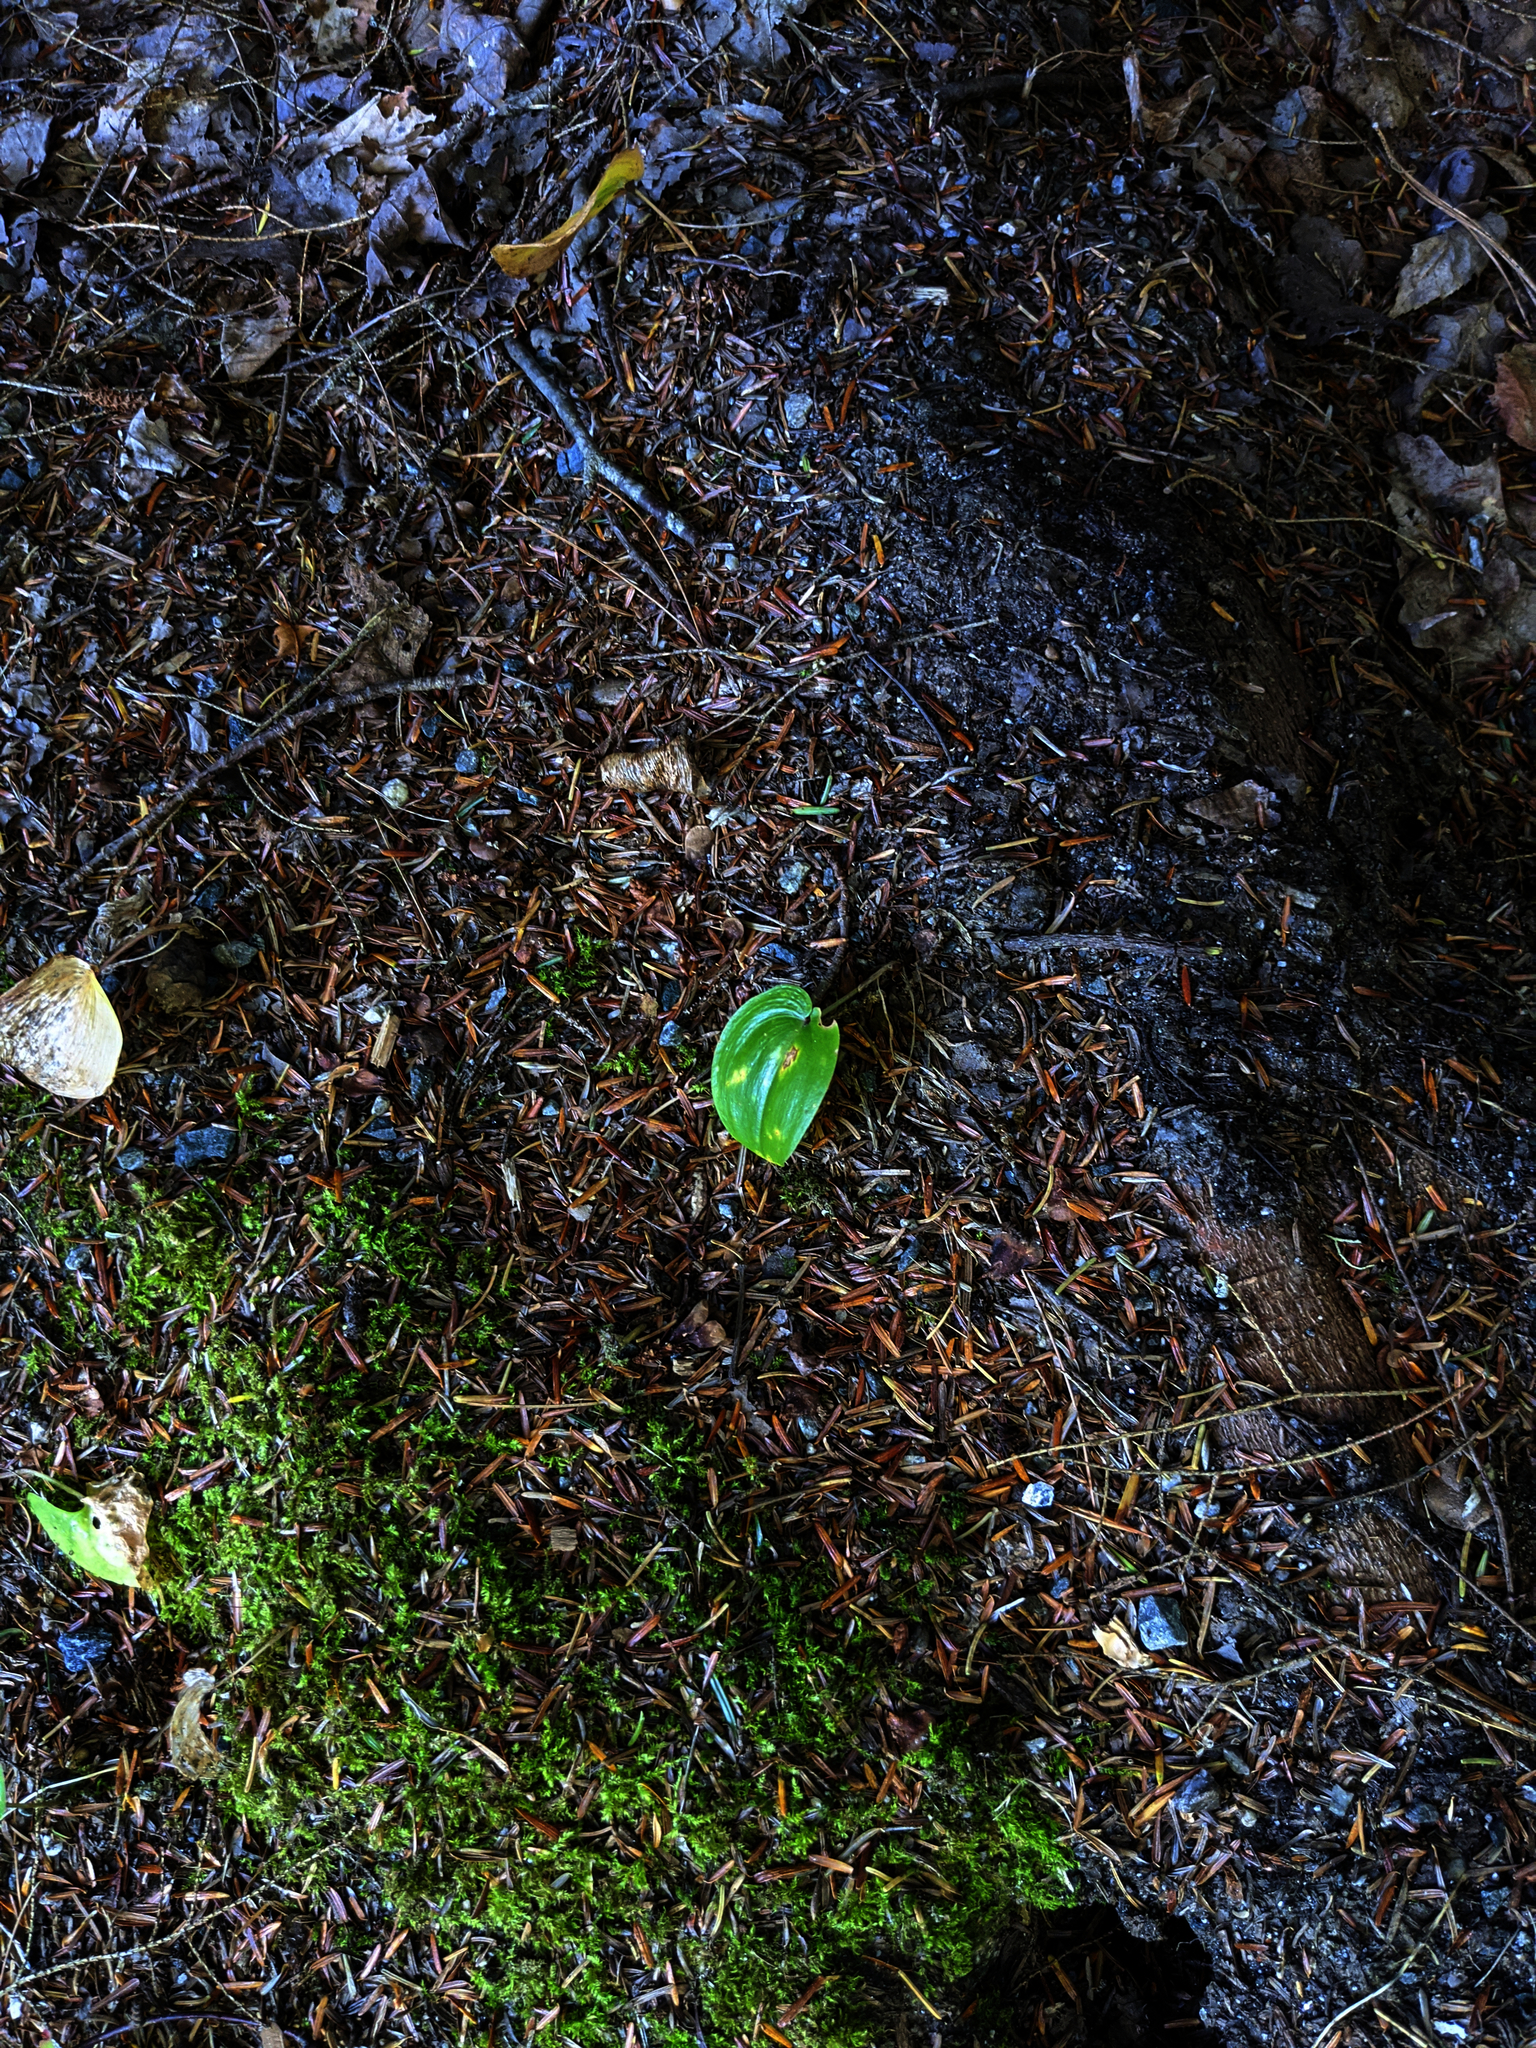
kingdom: Plantae
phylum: Tracheophyta
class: Liliopsida
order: Asparagales
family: Asparagaceae
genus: Maianthemum
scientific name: Maianthemum canadense
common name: False lily-of-the-valley
